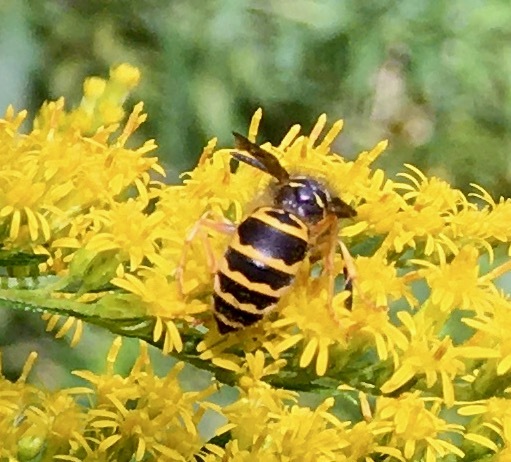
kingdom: Animalia
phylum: Arthropoda
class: Insecta
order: Hymenoptera
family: Vespidae
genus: Vespula
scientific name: Vespula maculifrons
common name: Eastern yellowjacket
